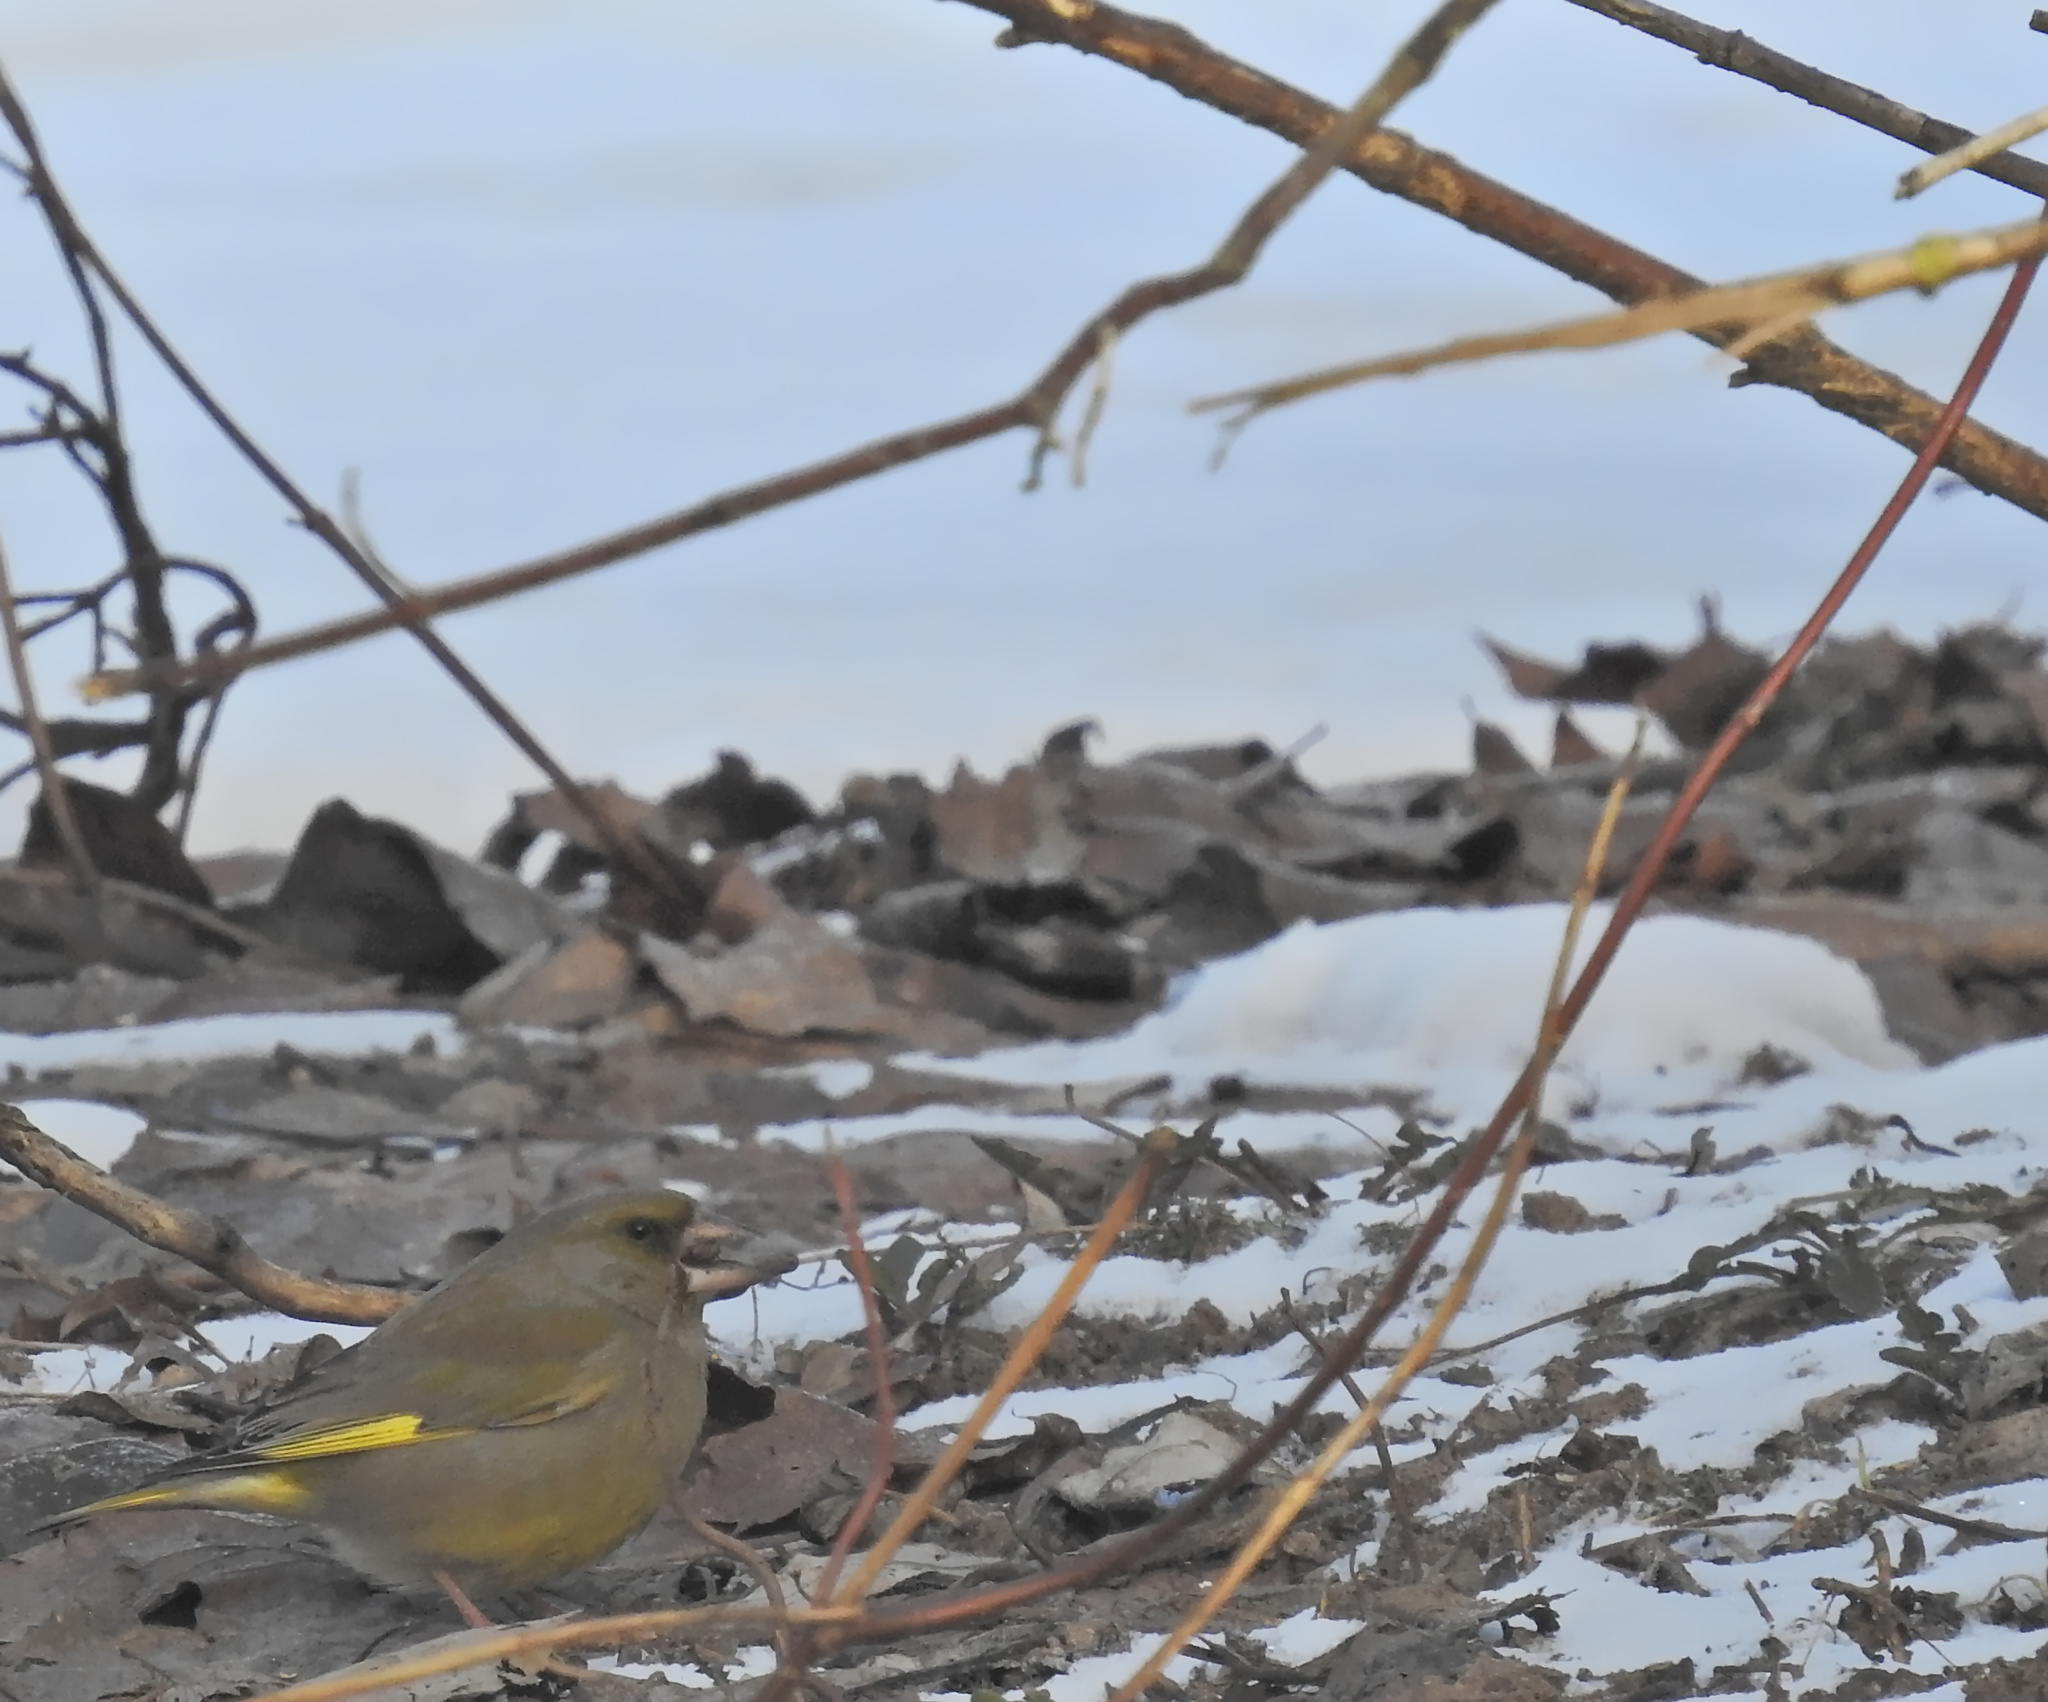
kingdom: Plantae
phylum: Tracheophyta
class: Liliopsida
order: Poales
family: Poaceae
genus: Chloris
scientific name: Chloris chloris
